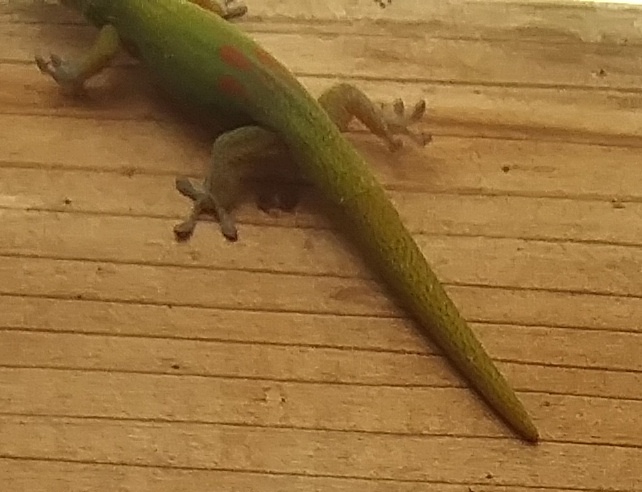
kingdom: Animalia
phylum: Chordata
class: Squamata
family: Gekkonidae
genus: Phelsuma
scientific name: Phelsuma laticauda
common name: Gold dust day gecko
